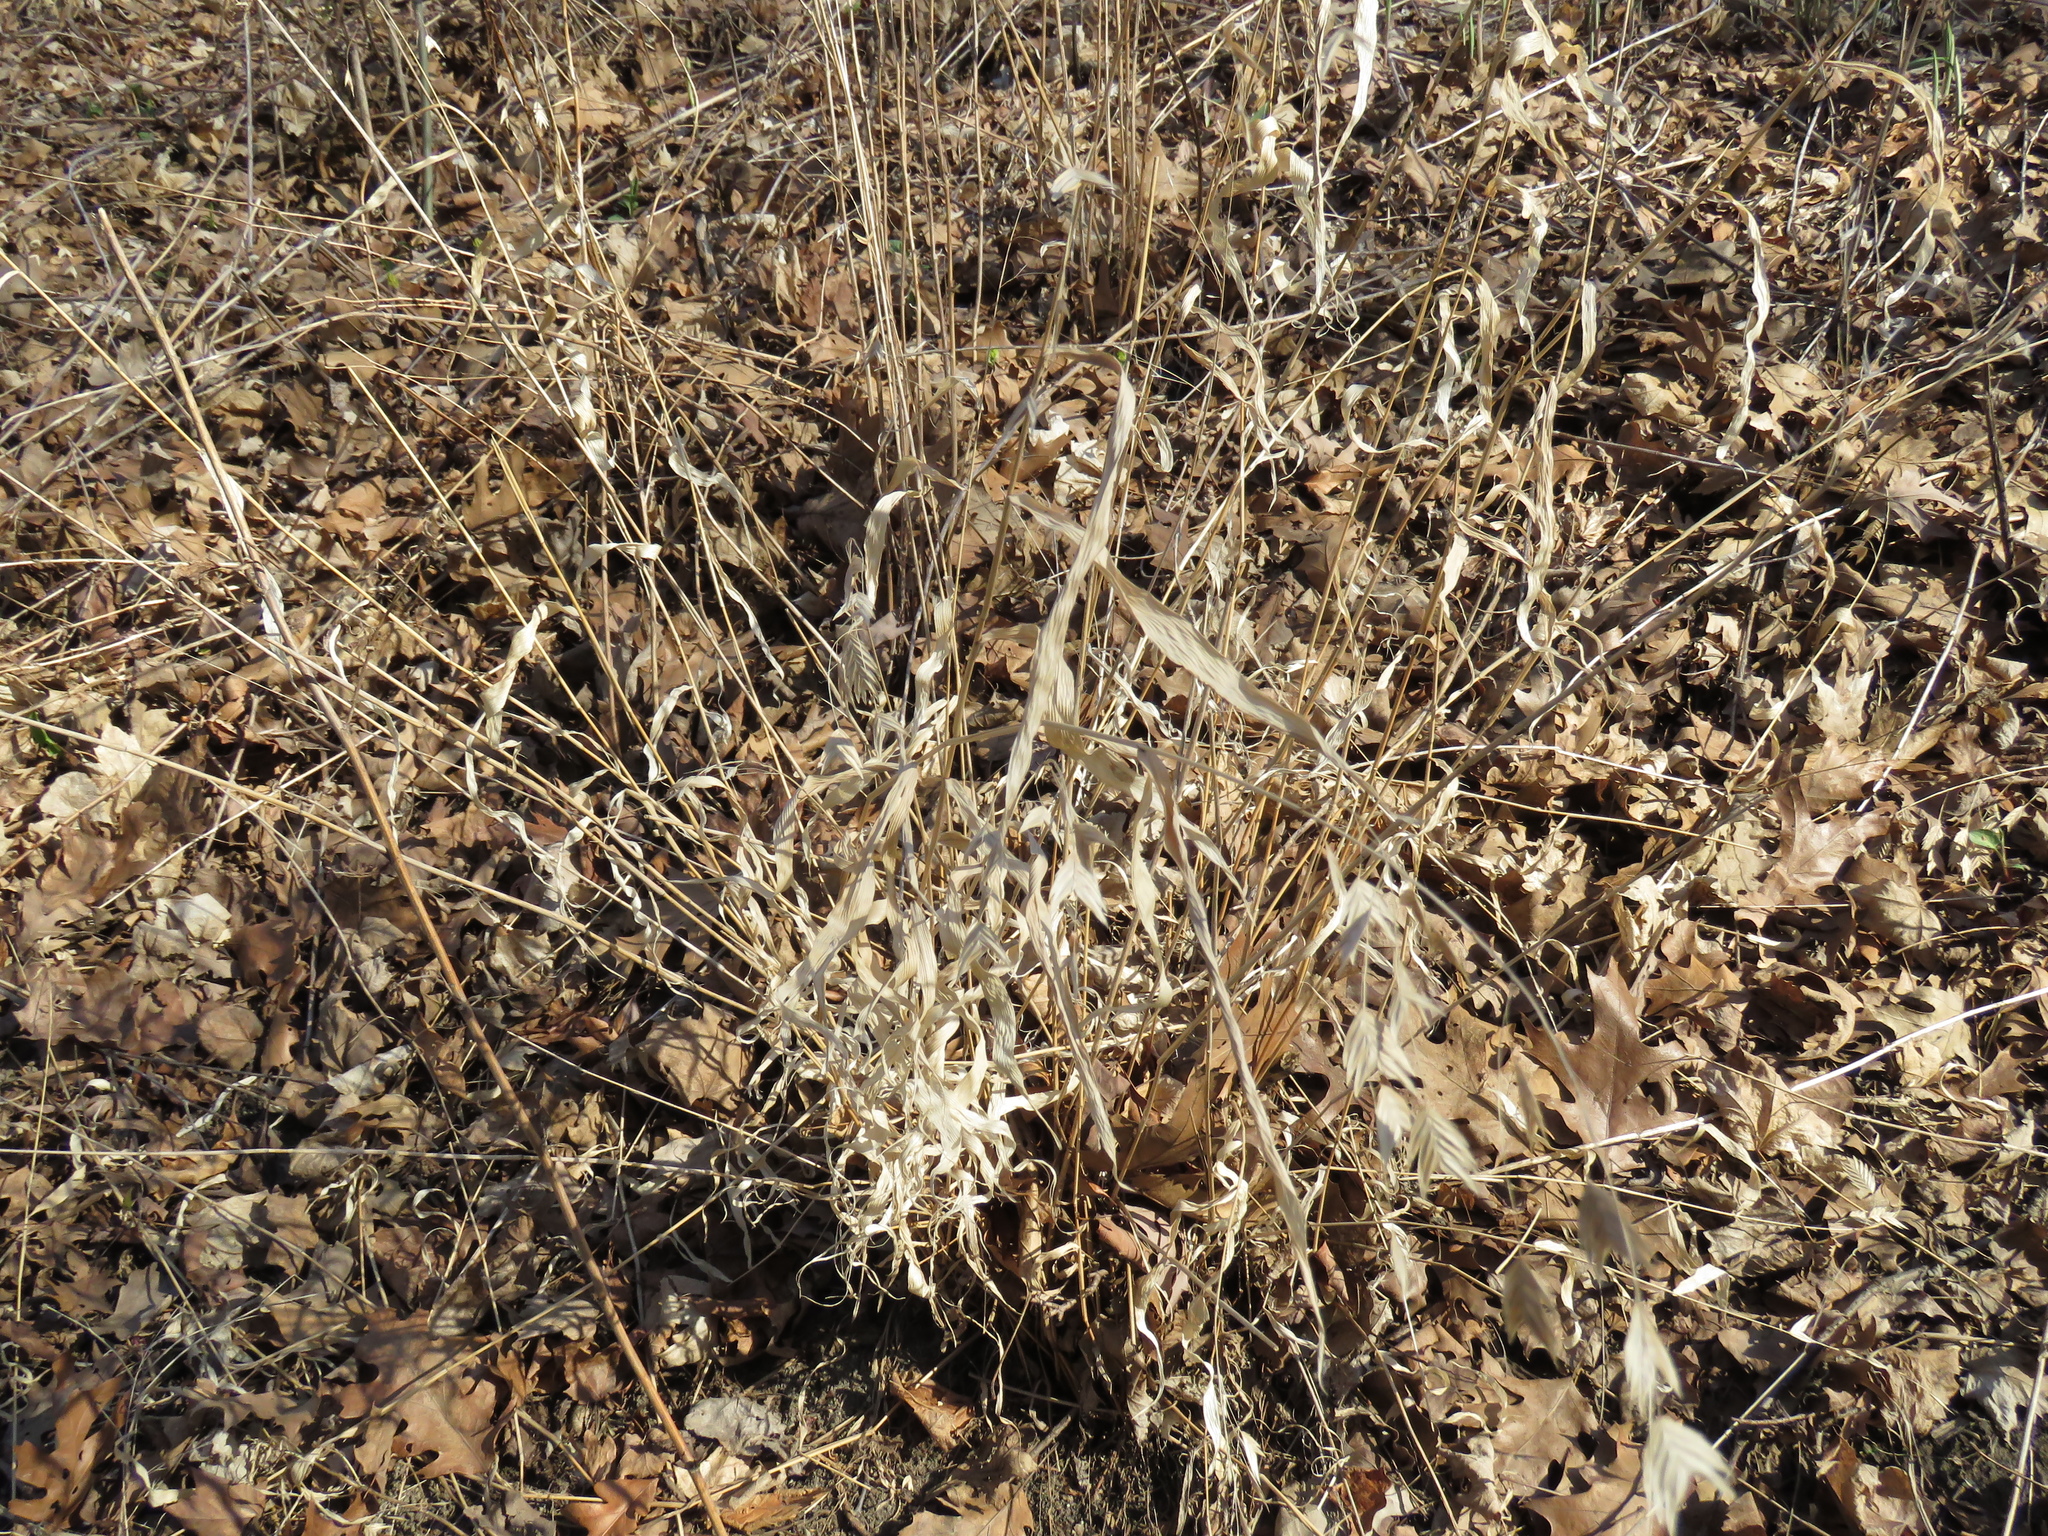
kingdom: Plantae
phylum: Tracheophyta
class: Liliopsida
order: Poales
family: Poaceae
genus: Chasmanthium
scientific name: Chasmanthium latifolium
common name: Broad-leaved chasmanthium
